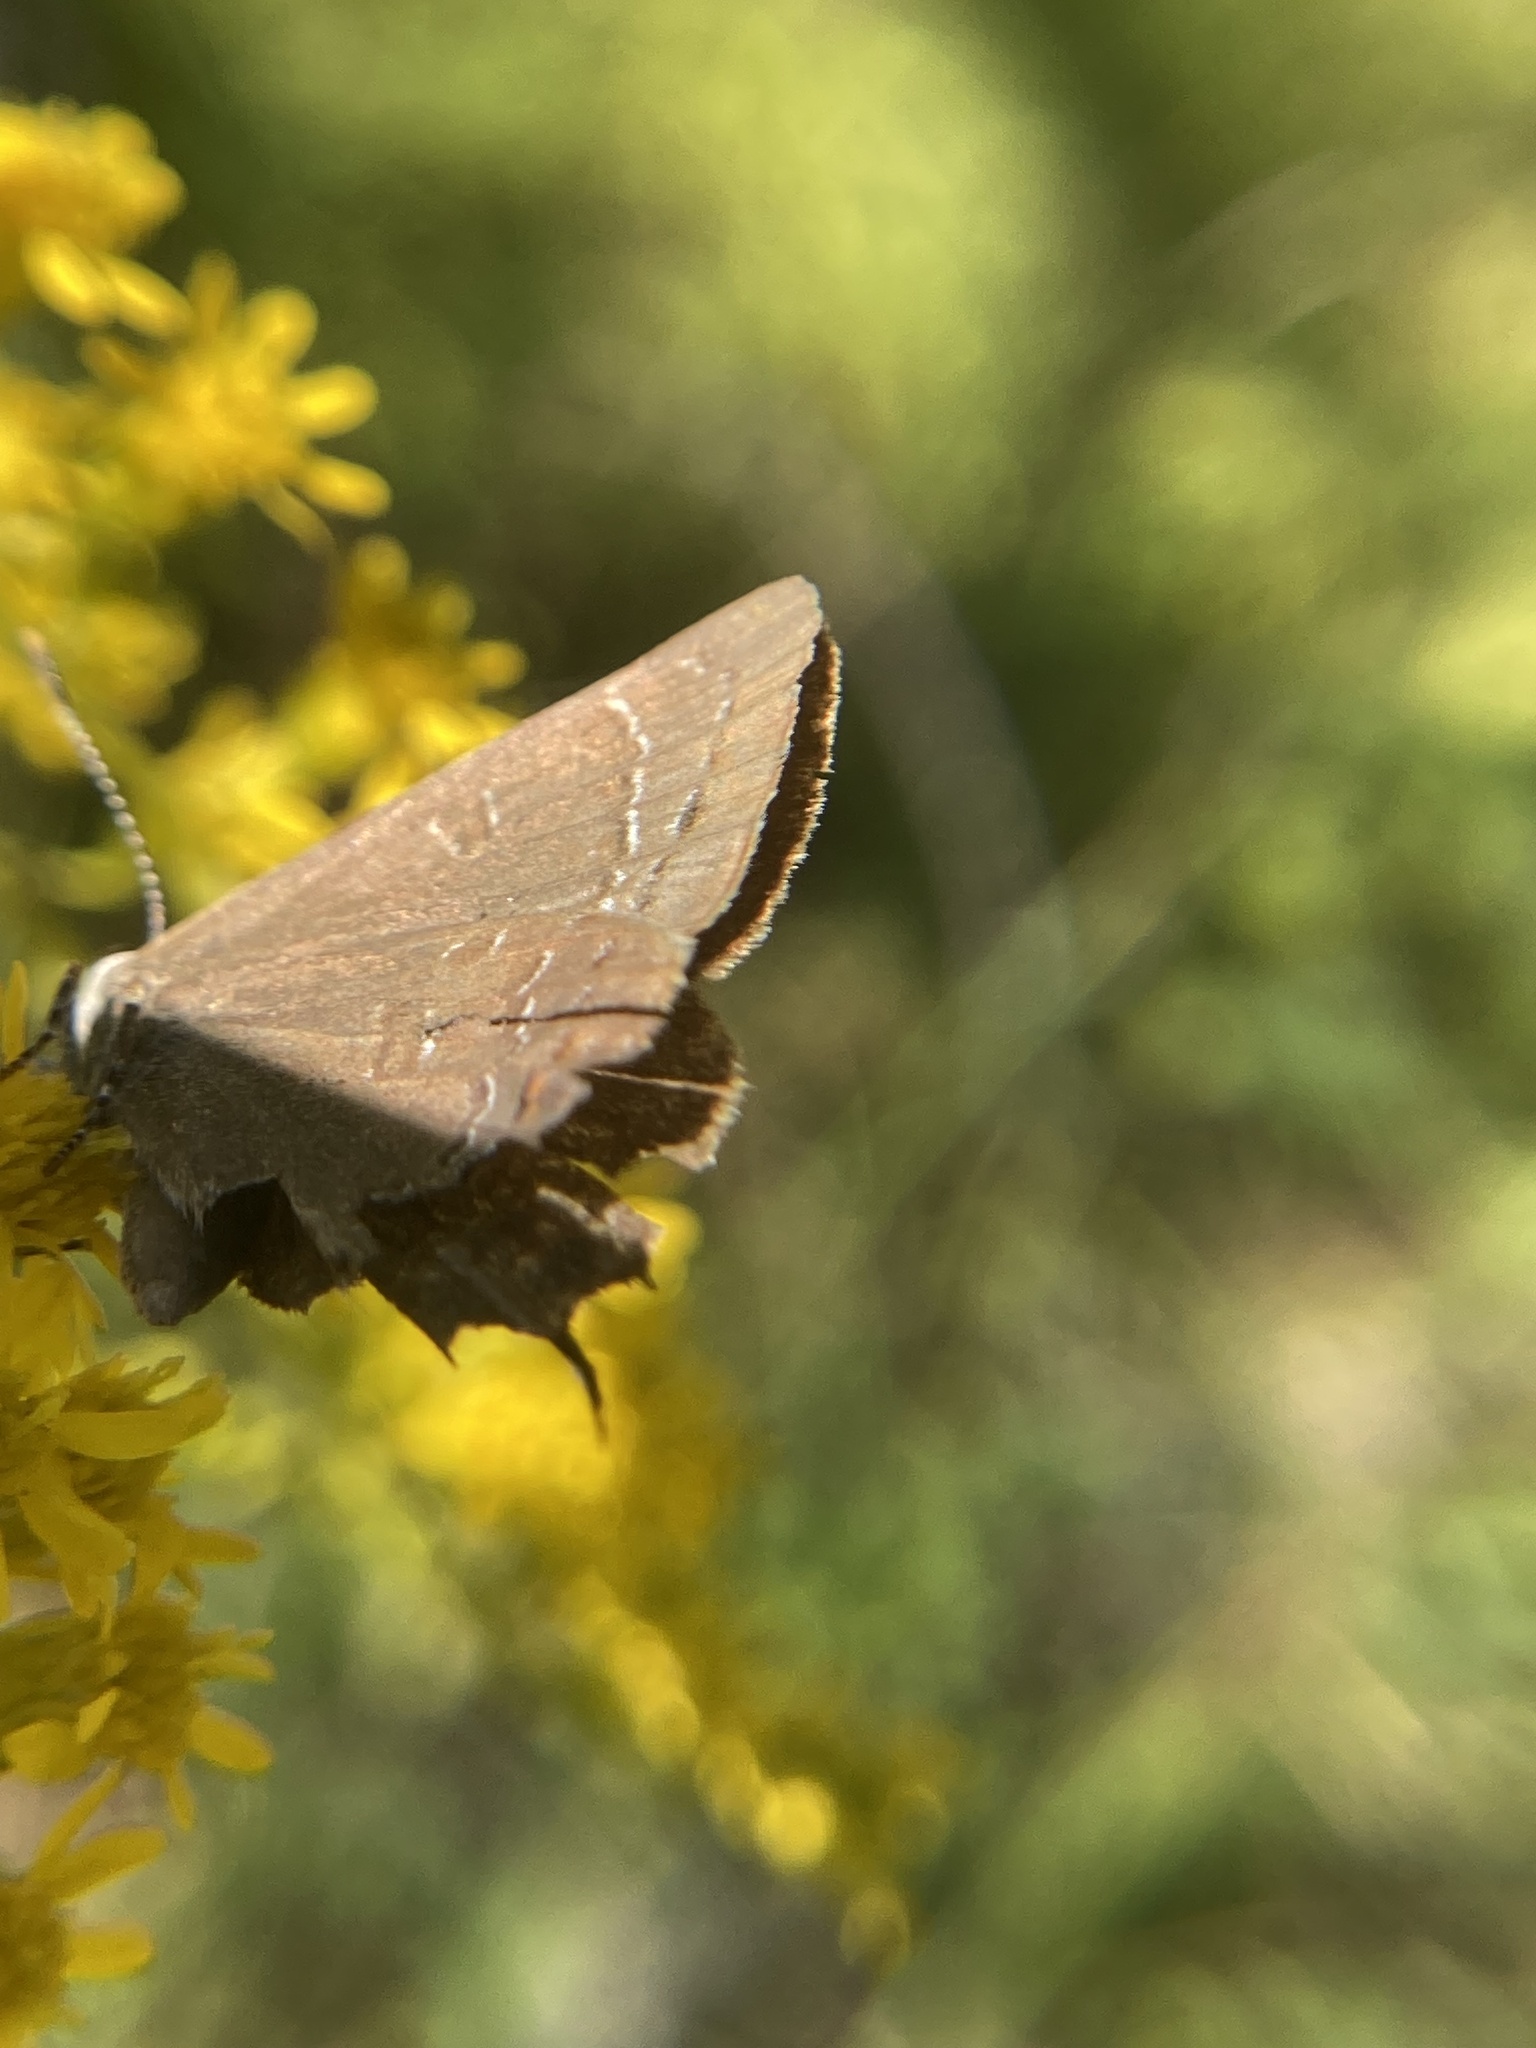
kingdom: Animalia
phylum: Arthropoda
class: Insecta
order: Lepidoptera
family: Lycaenidae
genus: Satyrium
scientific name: Satyrium calanus
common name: Banded hairstreak
